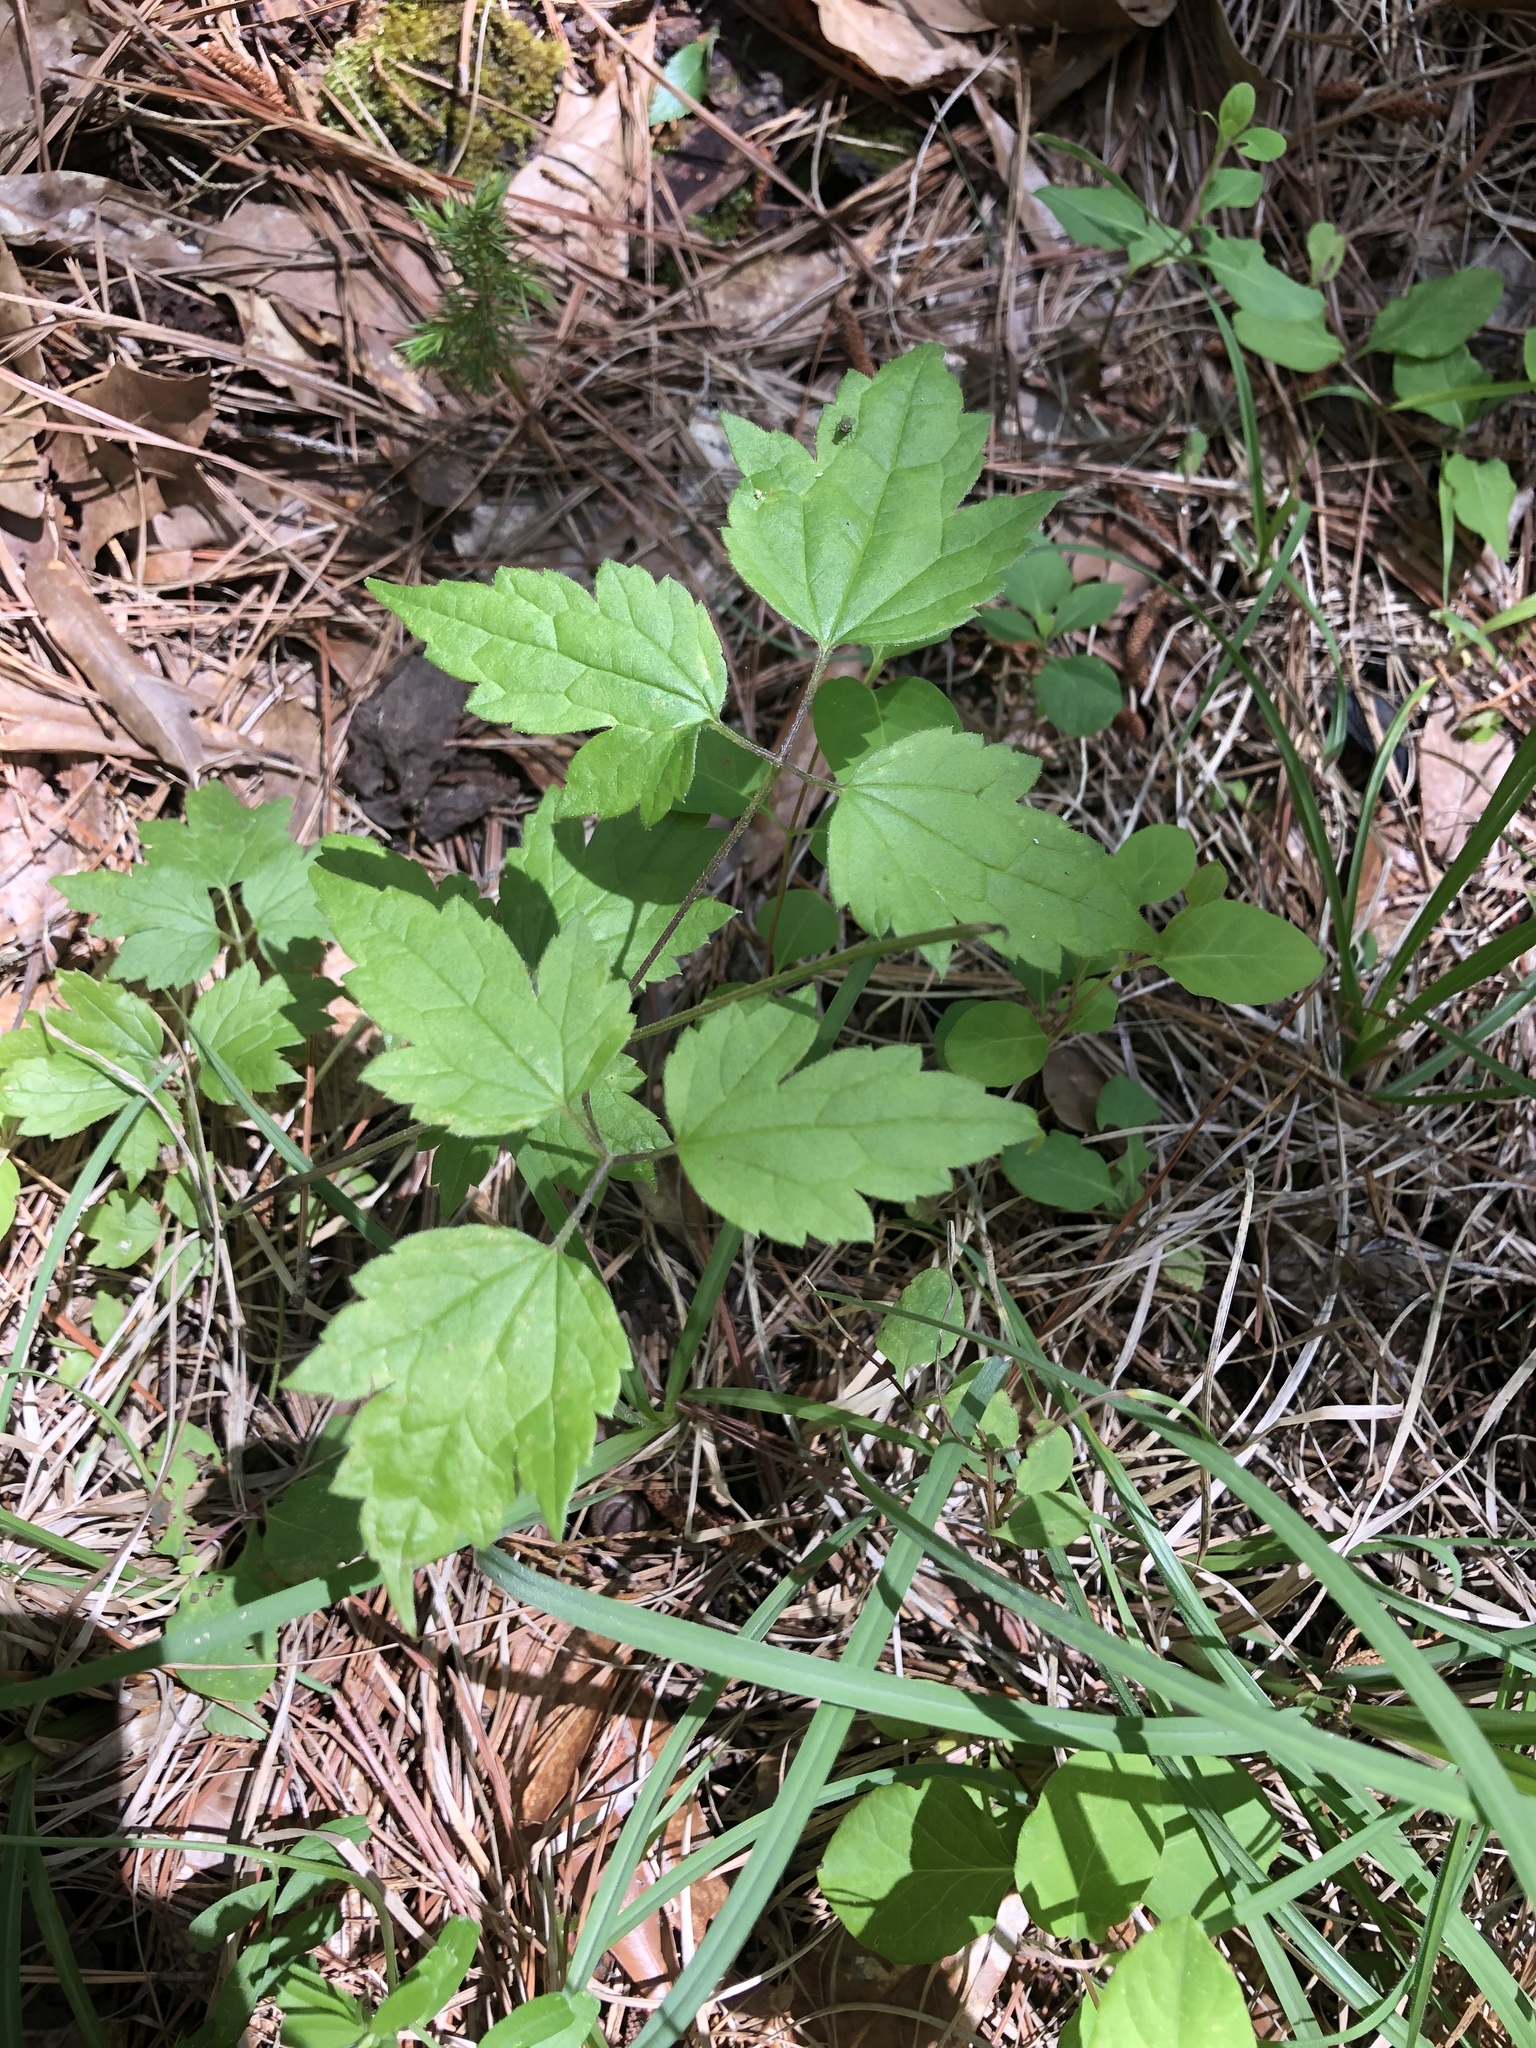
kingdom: Plantae
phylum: Tracheophyta
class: Magnoliopsida
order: Ranunculales
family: Ranunculaceae
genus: Clematis
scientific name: Clematis catesbyana
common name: Virgin's bower
